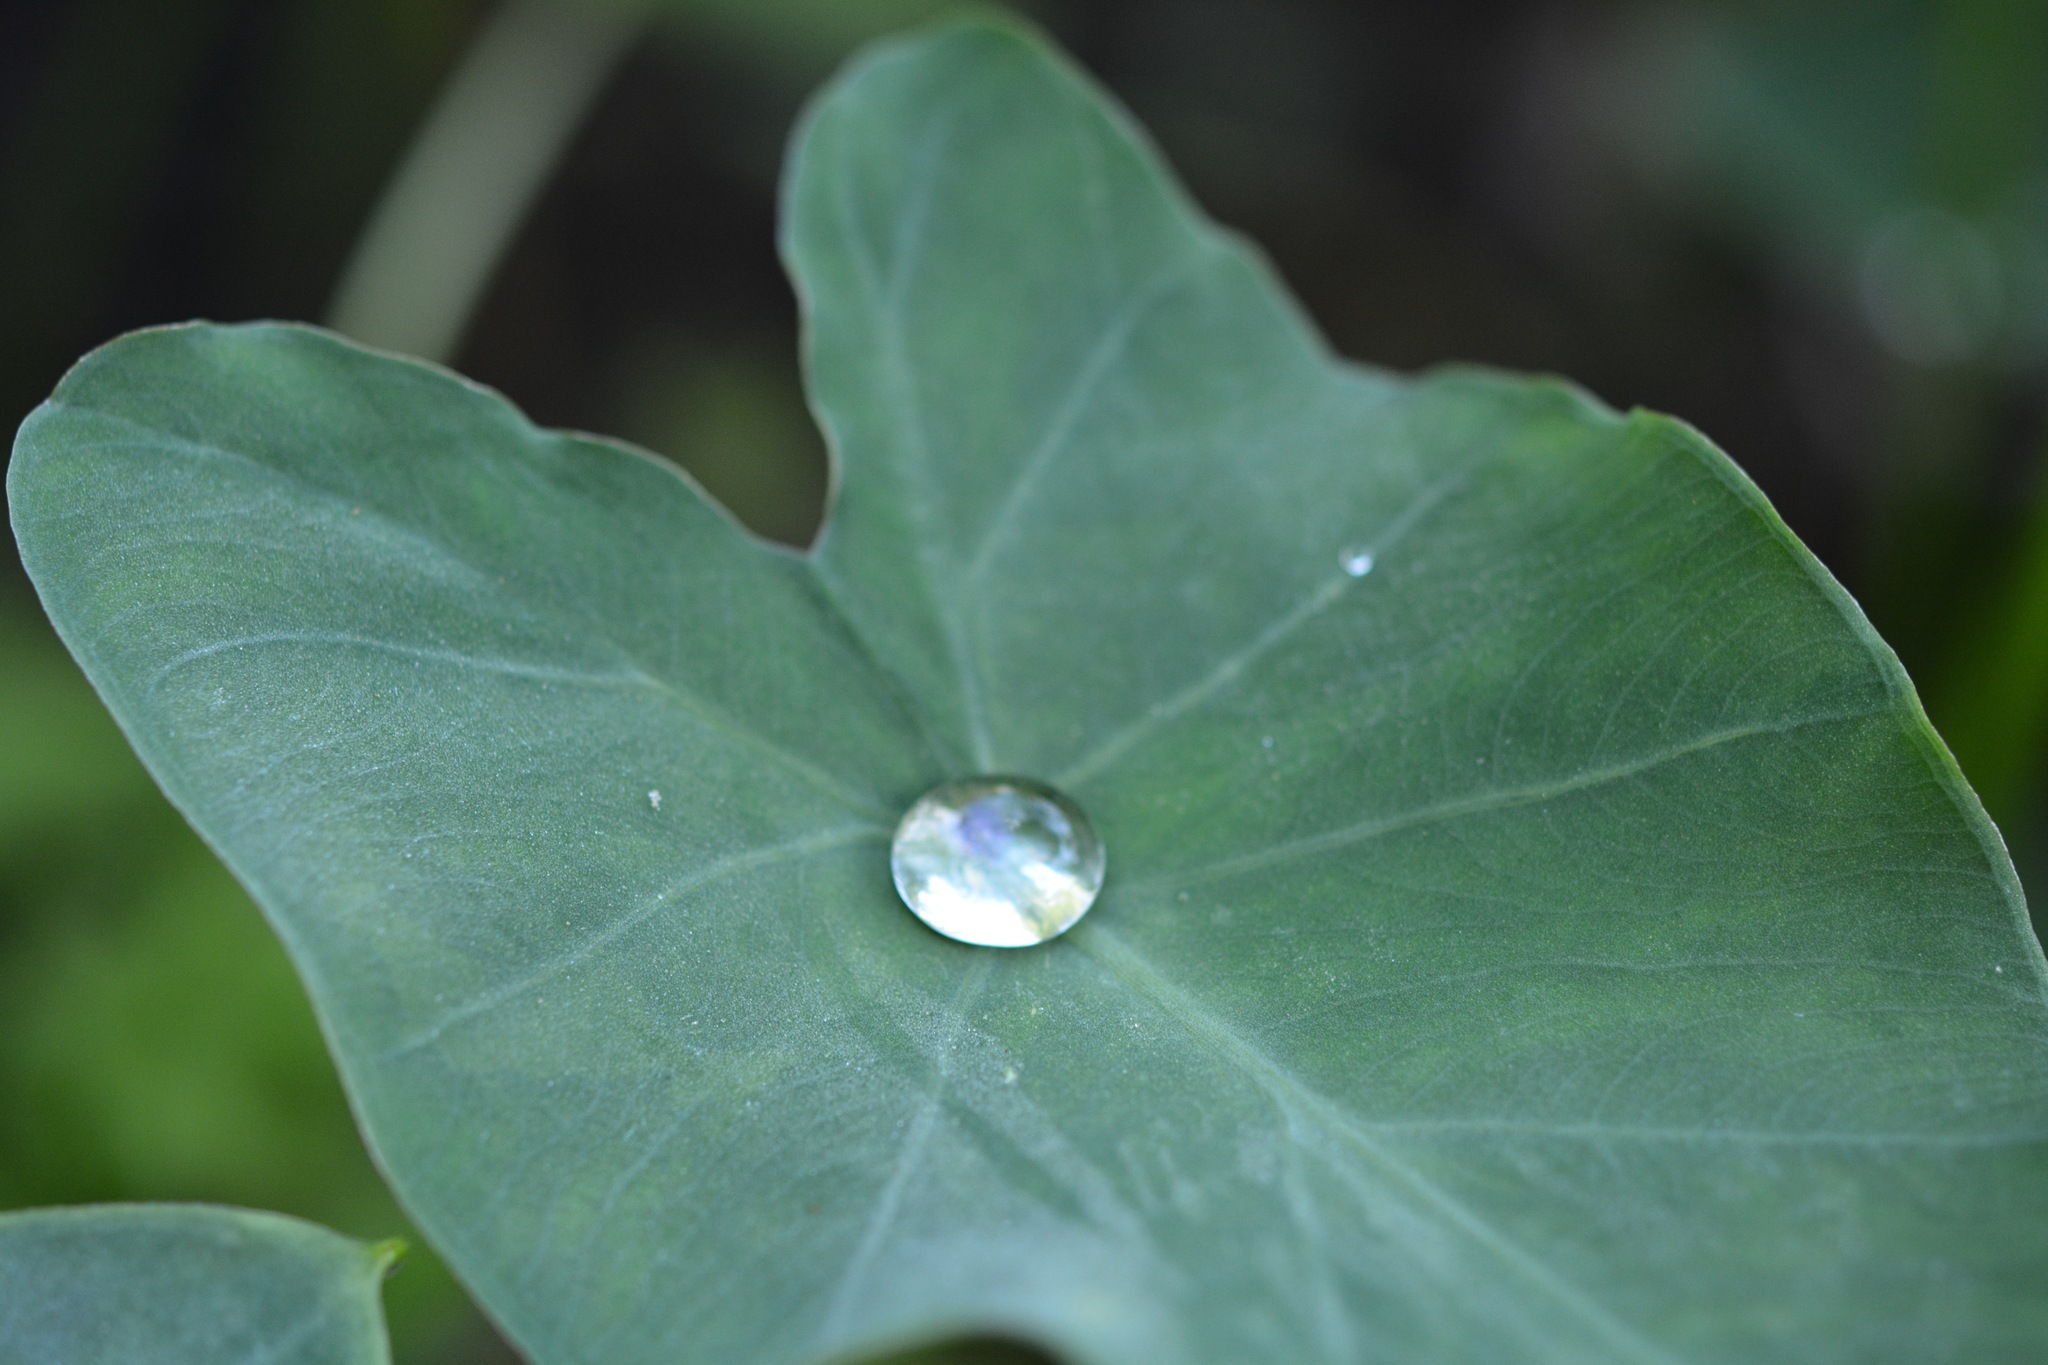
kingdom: Plantae
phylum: Tracheophyta
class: Liliopsida
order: Alismatales
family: Araceae
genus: Colocasia
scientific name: Colocasia esculenta
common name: Taro
